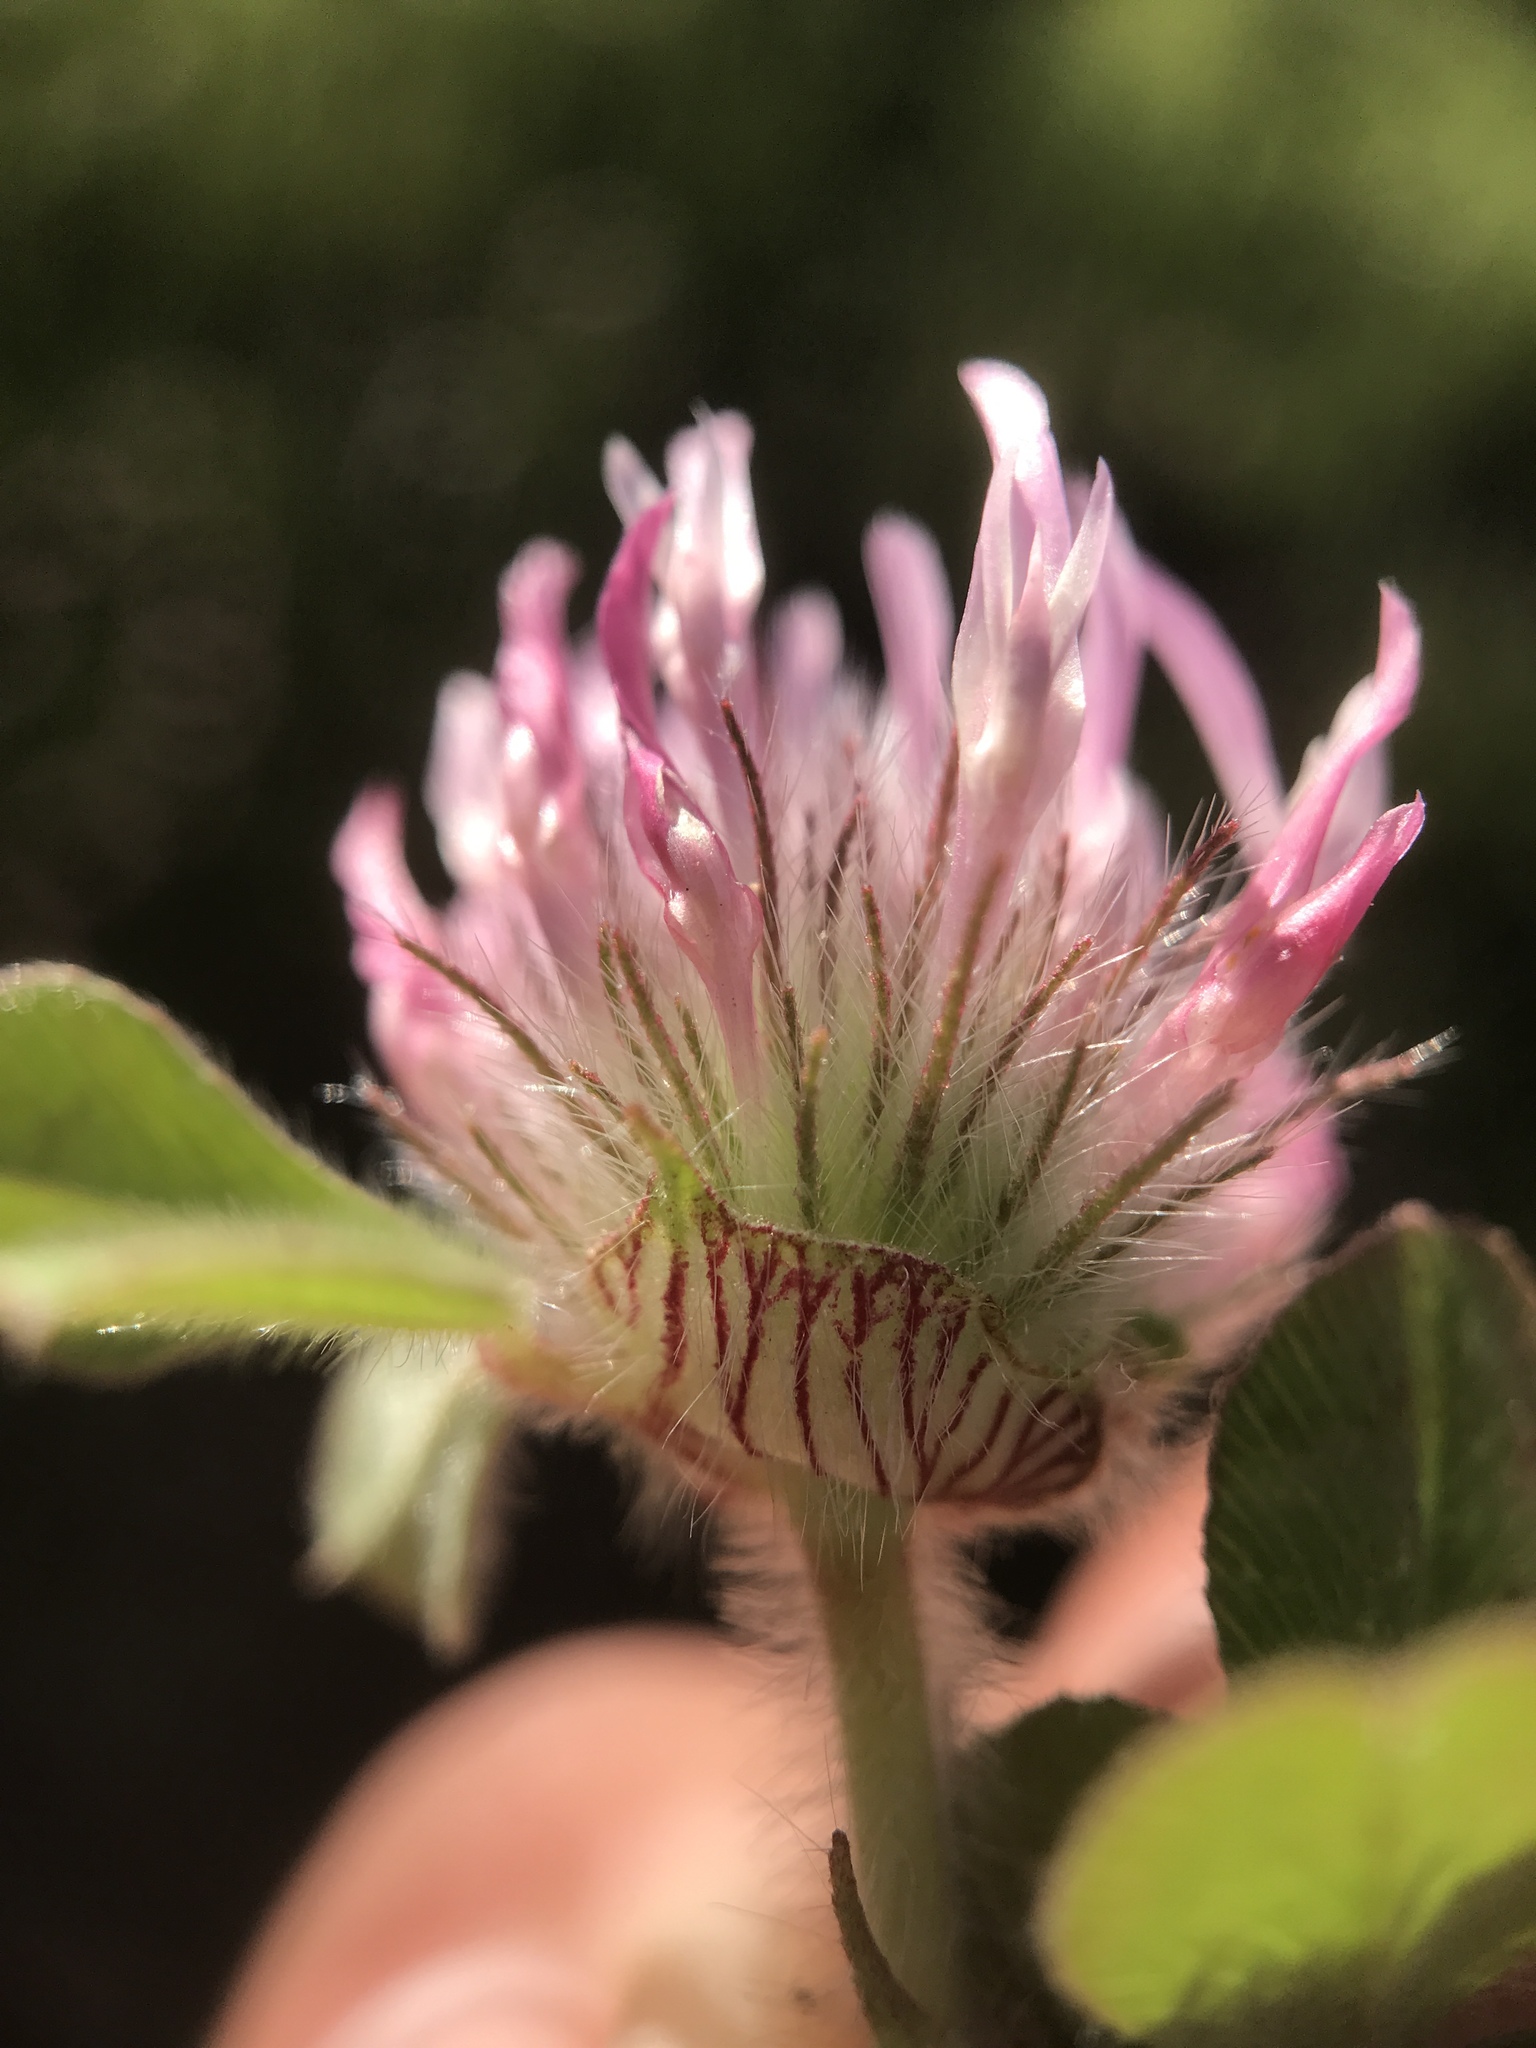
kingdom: Plantae
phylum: Tracheophyta
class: Magnoliopsida
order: Fabales
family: Fabaceae
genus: Trifolium
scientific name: Trifolium hirtum
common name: Rose clover
